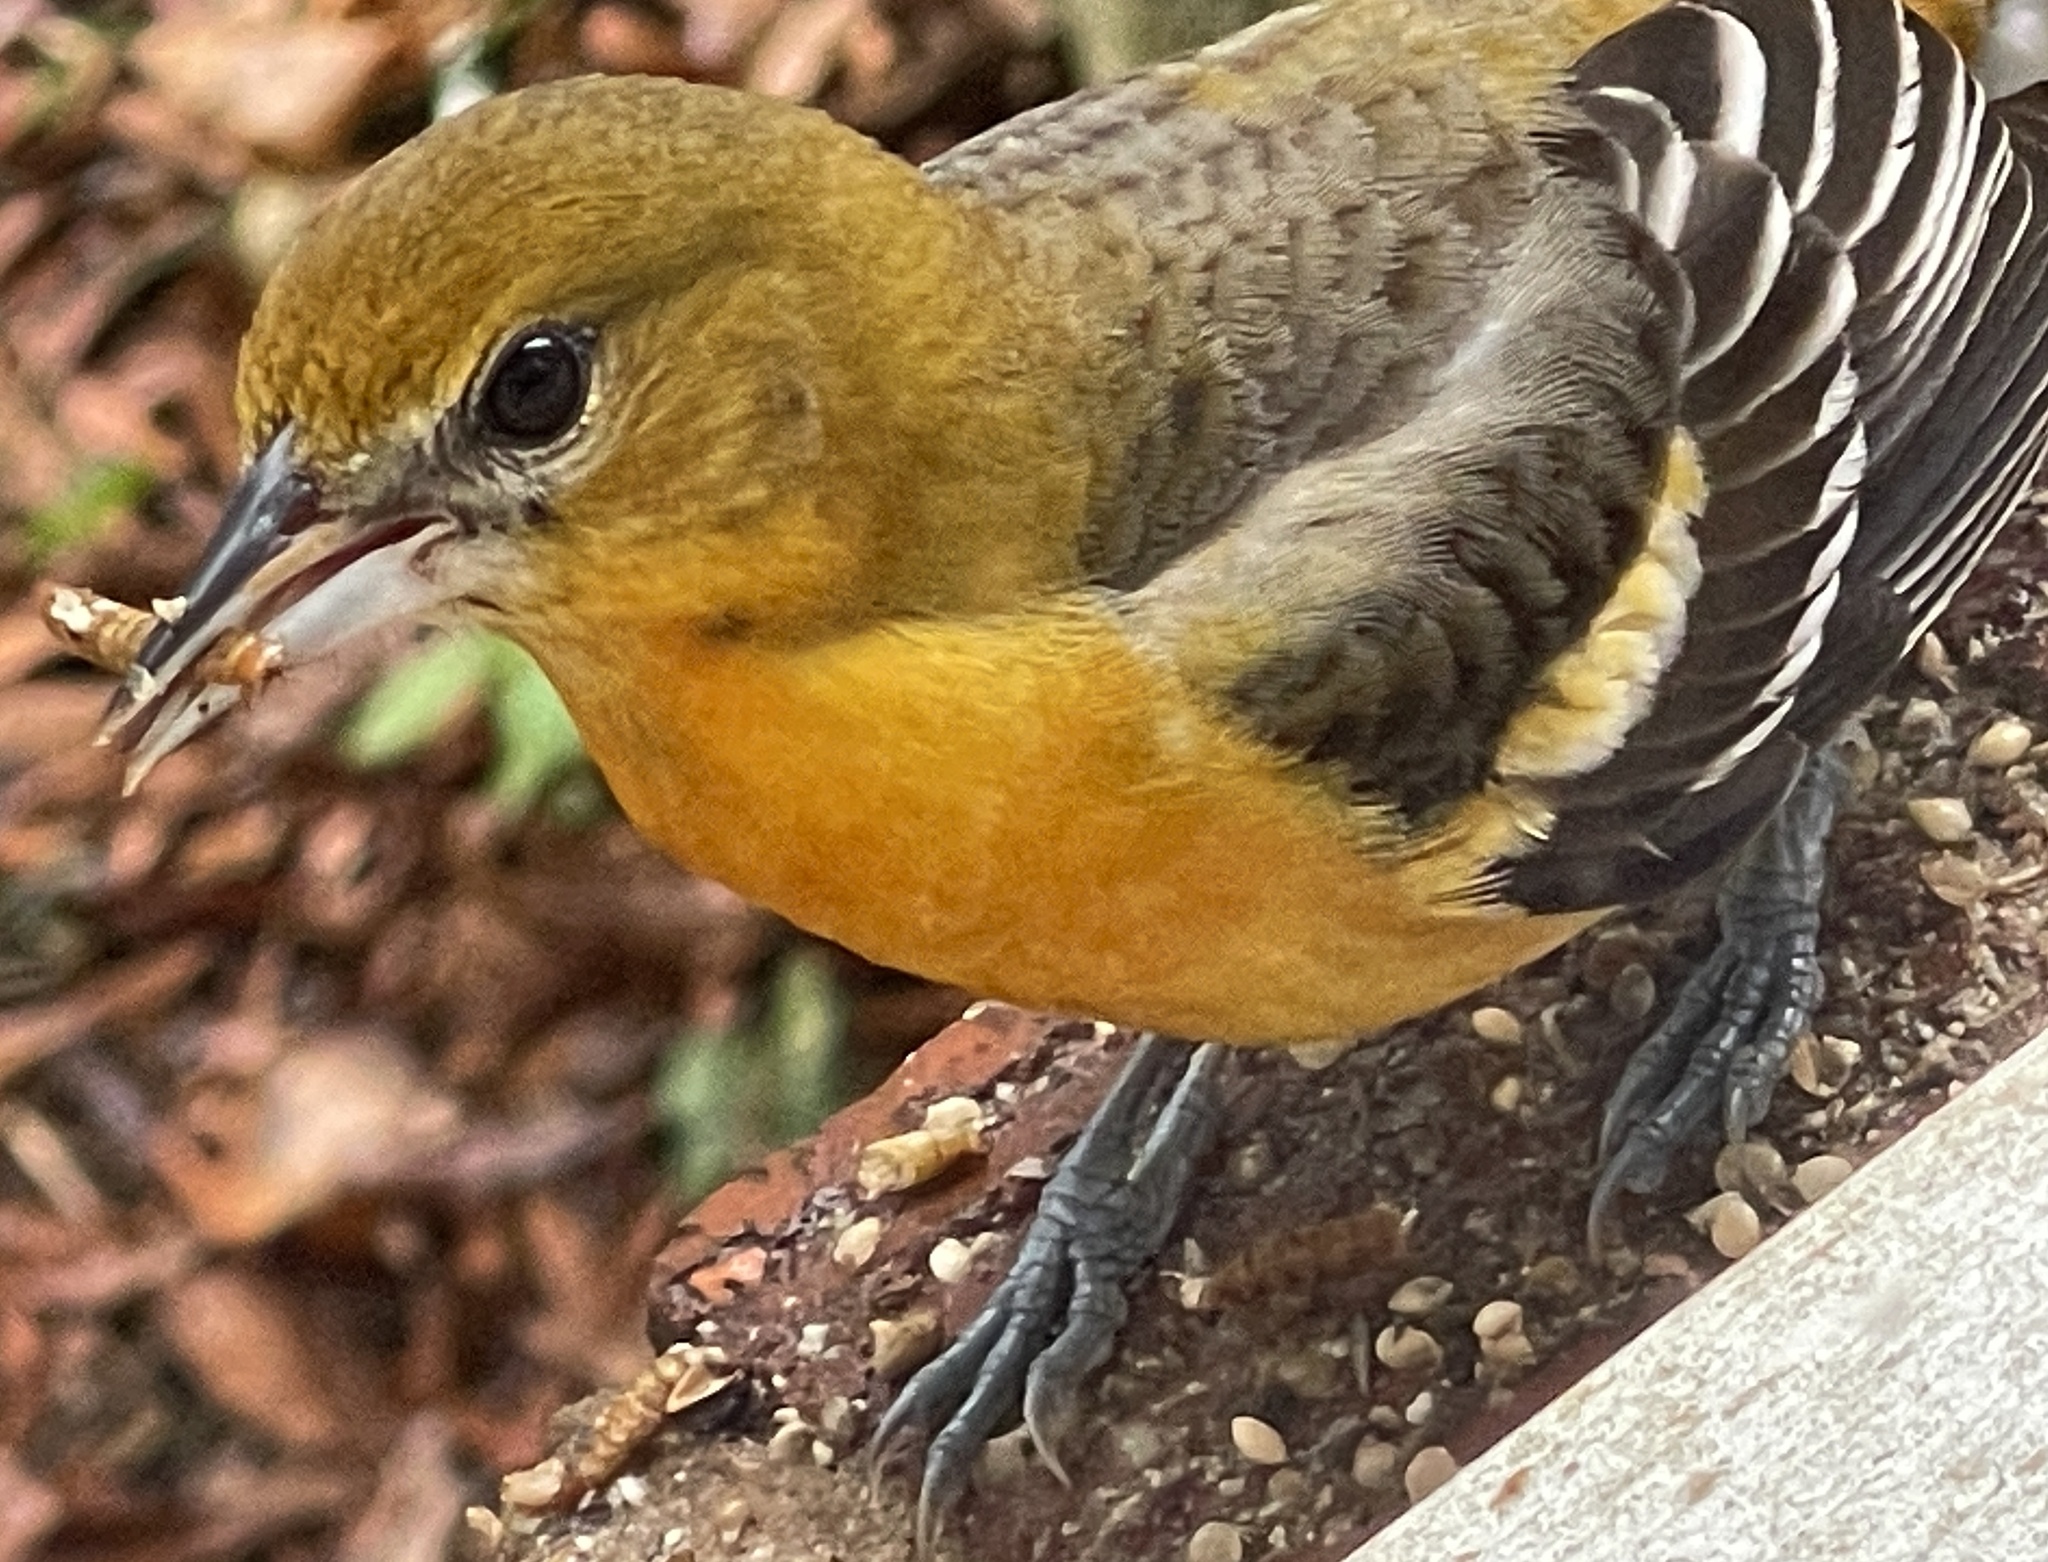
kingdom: Animalia
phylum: Chordata
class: Aves
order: Passeriformes
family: Icteridae
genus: Icterus
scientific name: Icterus galbula
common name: Baltimore oriole
